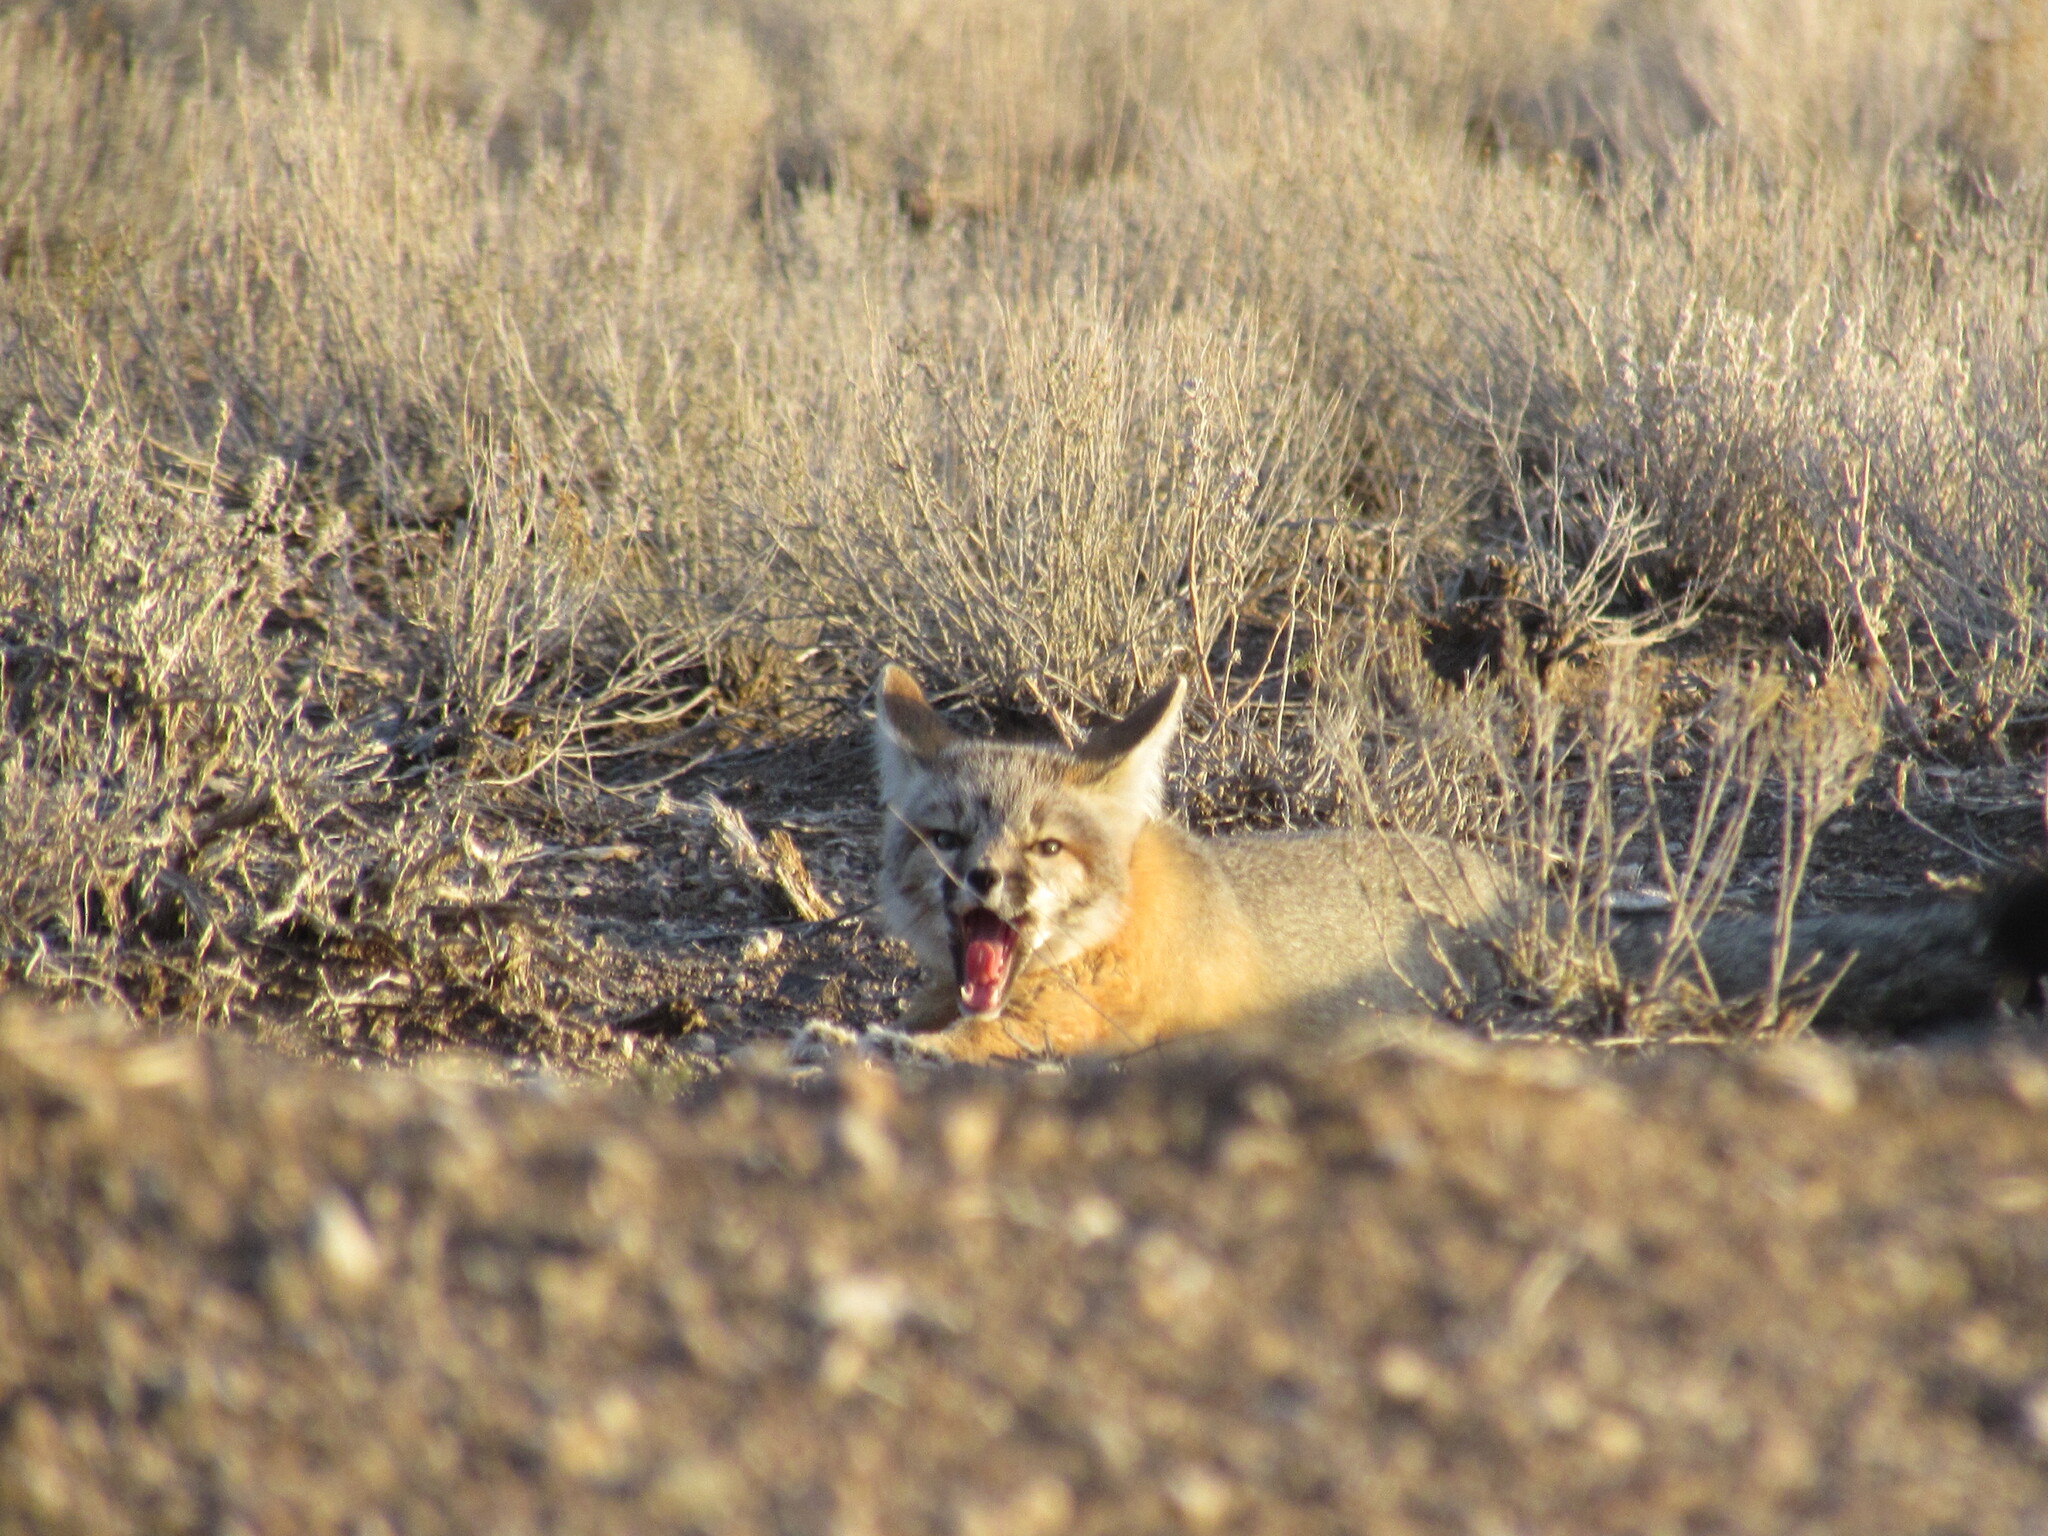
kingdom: Animalia
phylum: Chordata
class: Mammalia
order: Carnivora
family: Canidae
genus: Vulpes
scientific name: Vulpes macrotis
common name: Kit fox
